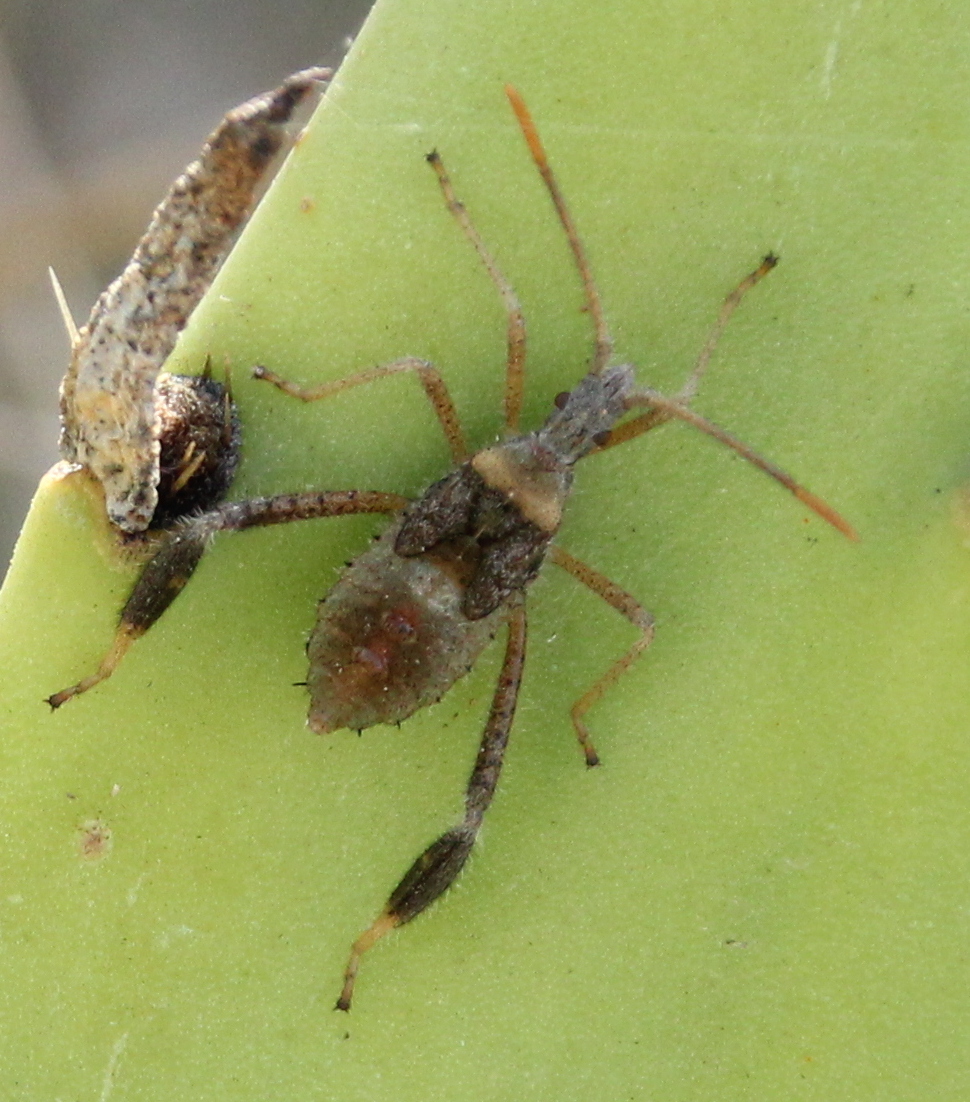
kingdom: Animalia
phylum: Arthropoda
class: Insecta
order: Hemiptera
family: Coreidae
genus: Narnia
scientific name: Narnia femorata
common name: Leaf-footed cactus bug
